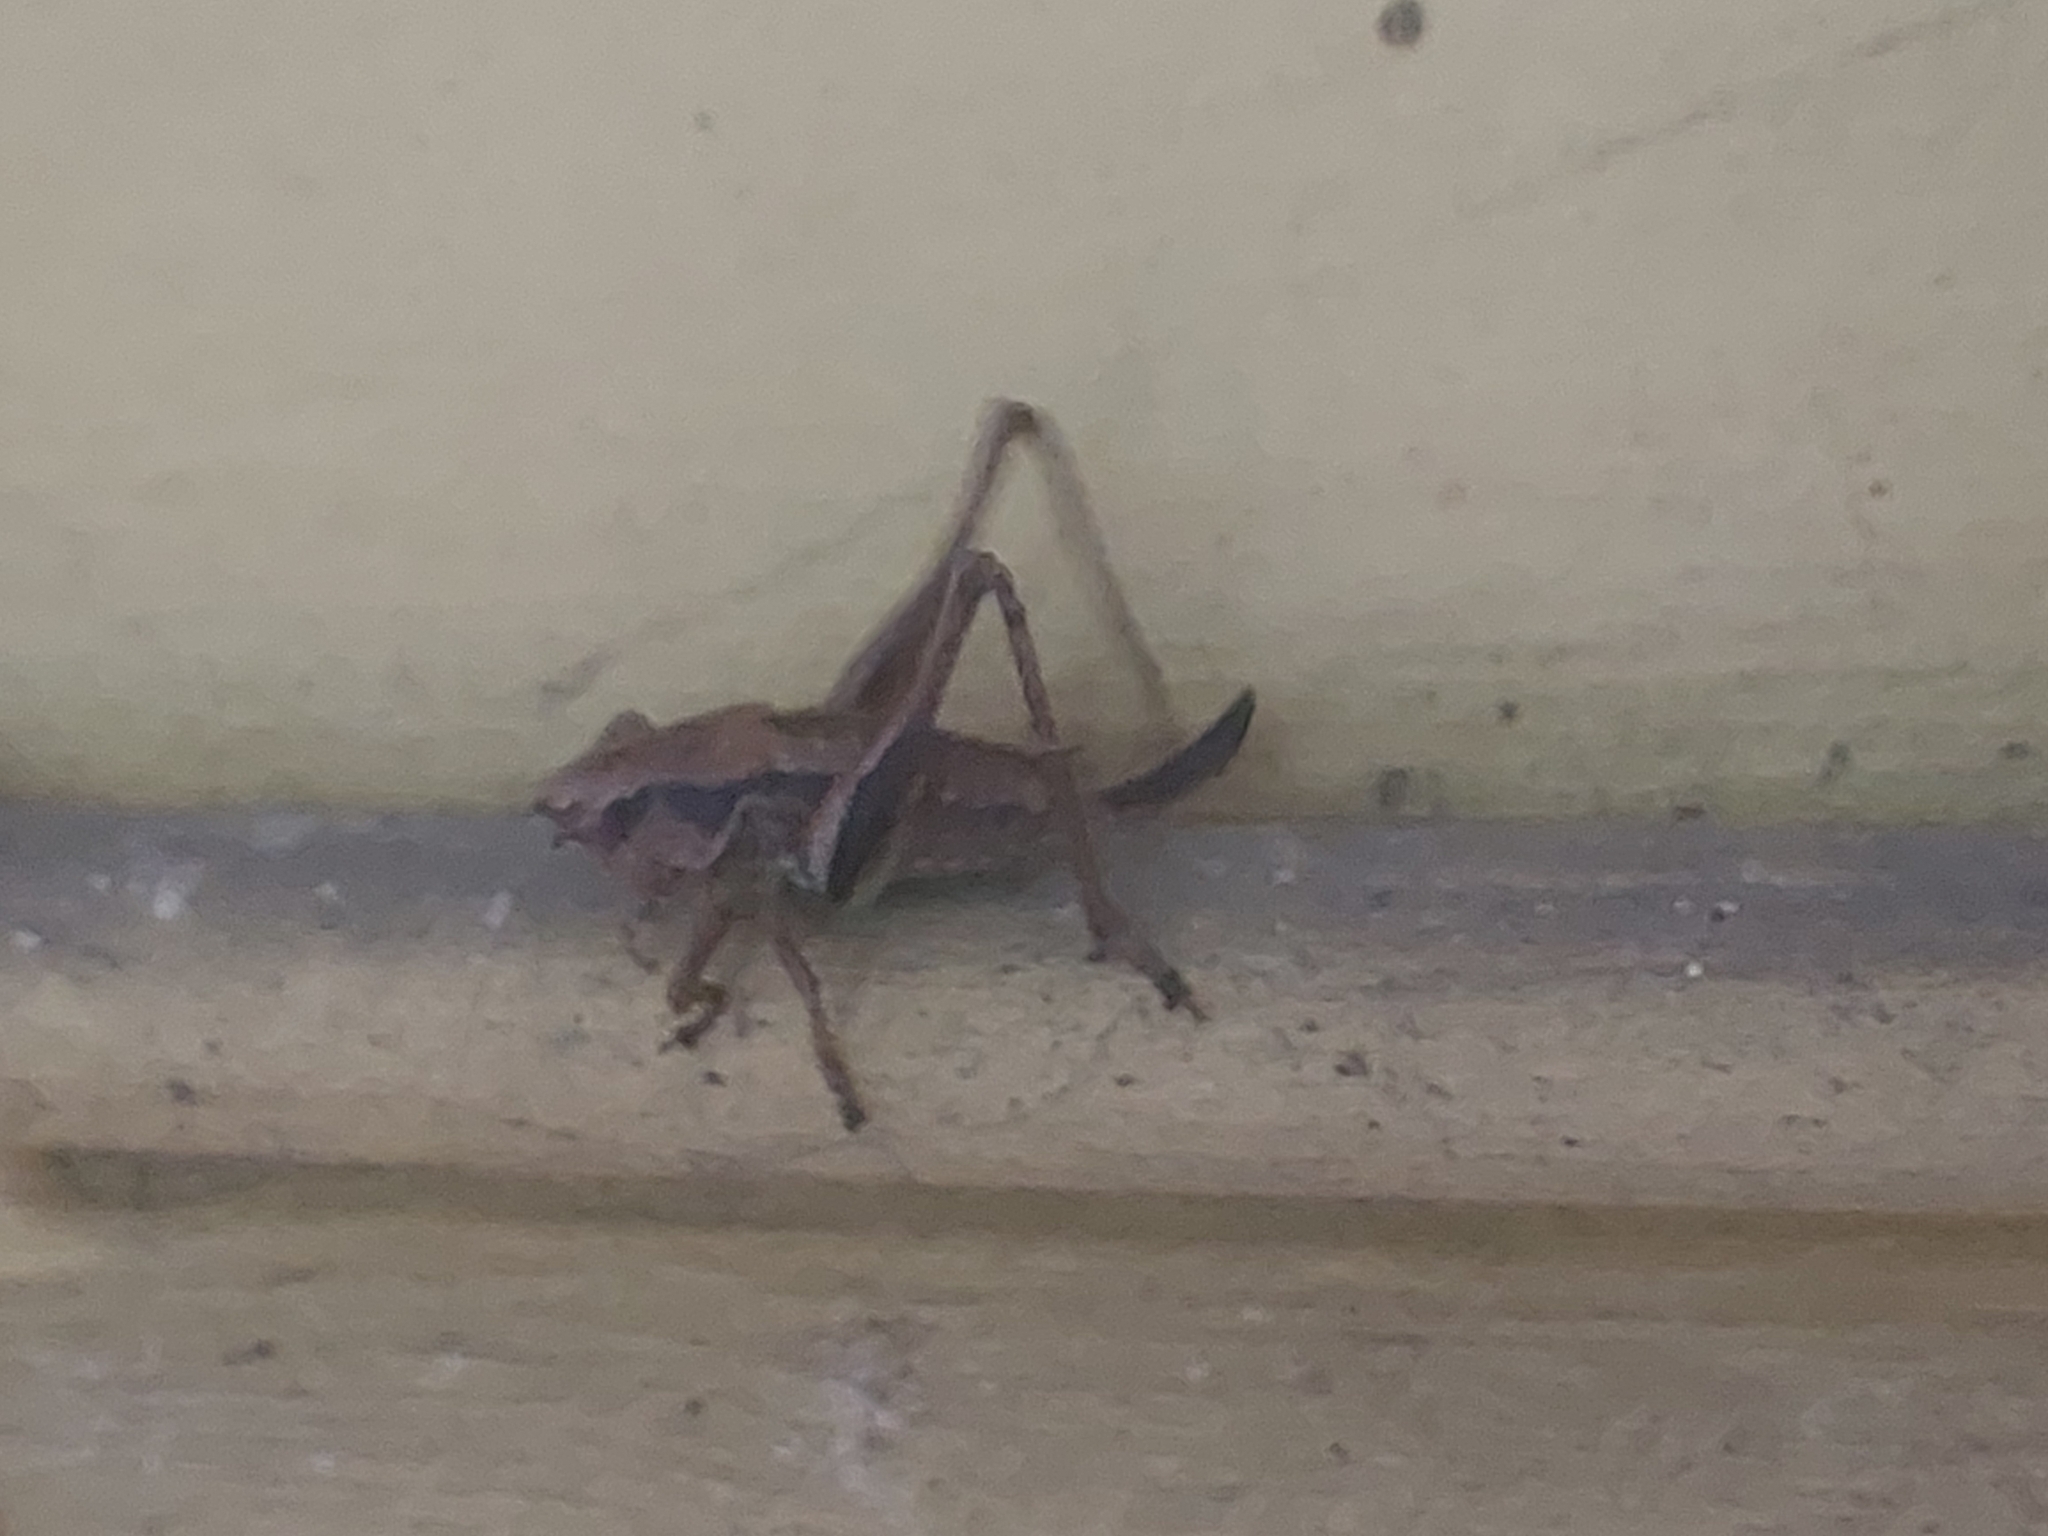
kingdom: Animalia
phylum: Arthropoda
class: Insecta
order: Orthoptera
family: Tettigoniidae
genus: Pholidoptera
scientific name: Pholidoptera griseoaptera
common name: Dark bush-cricket
